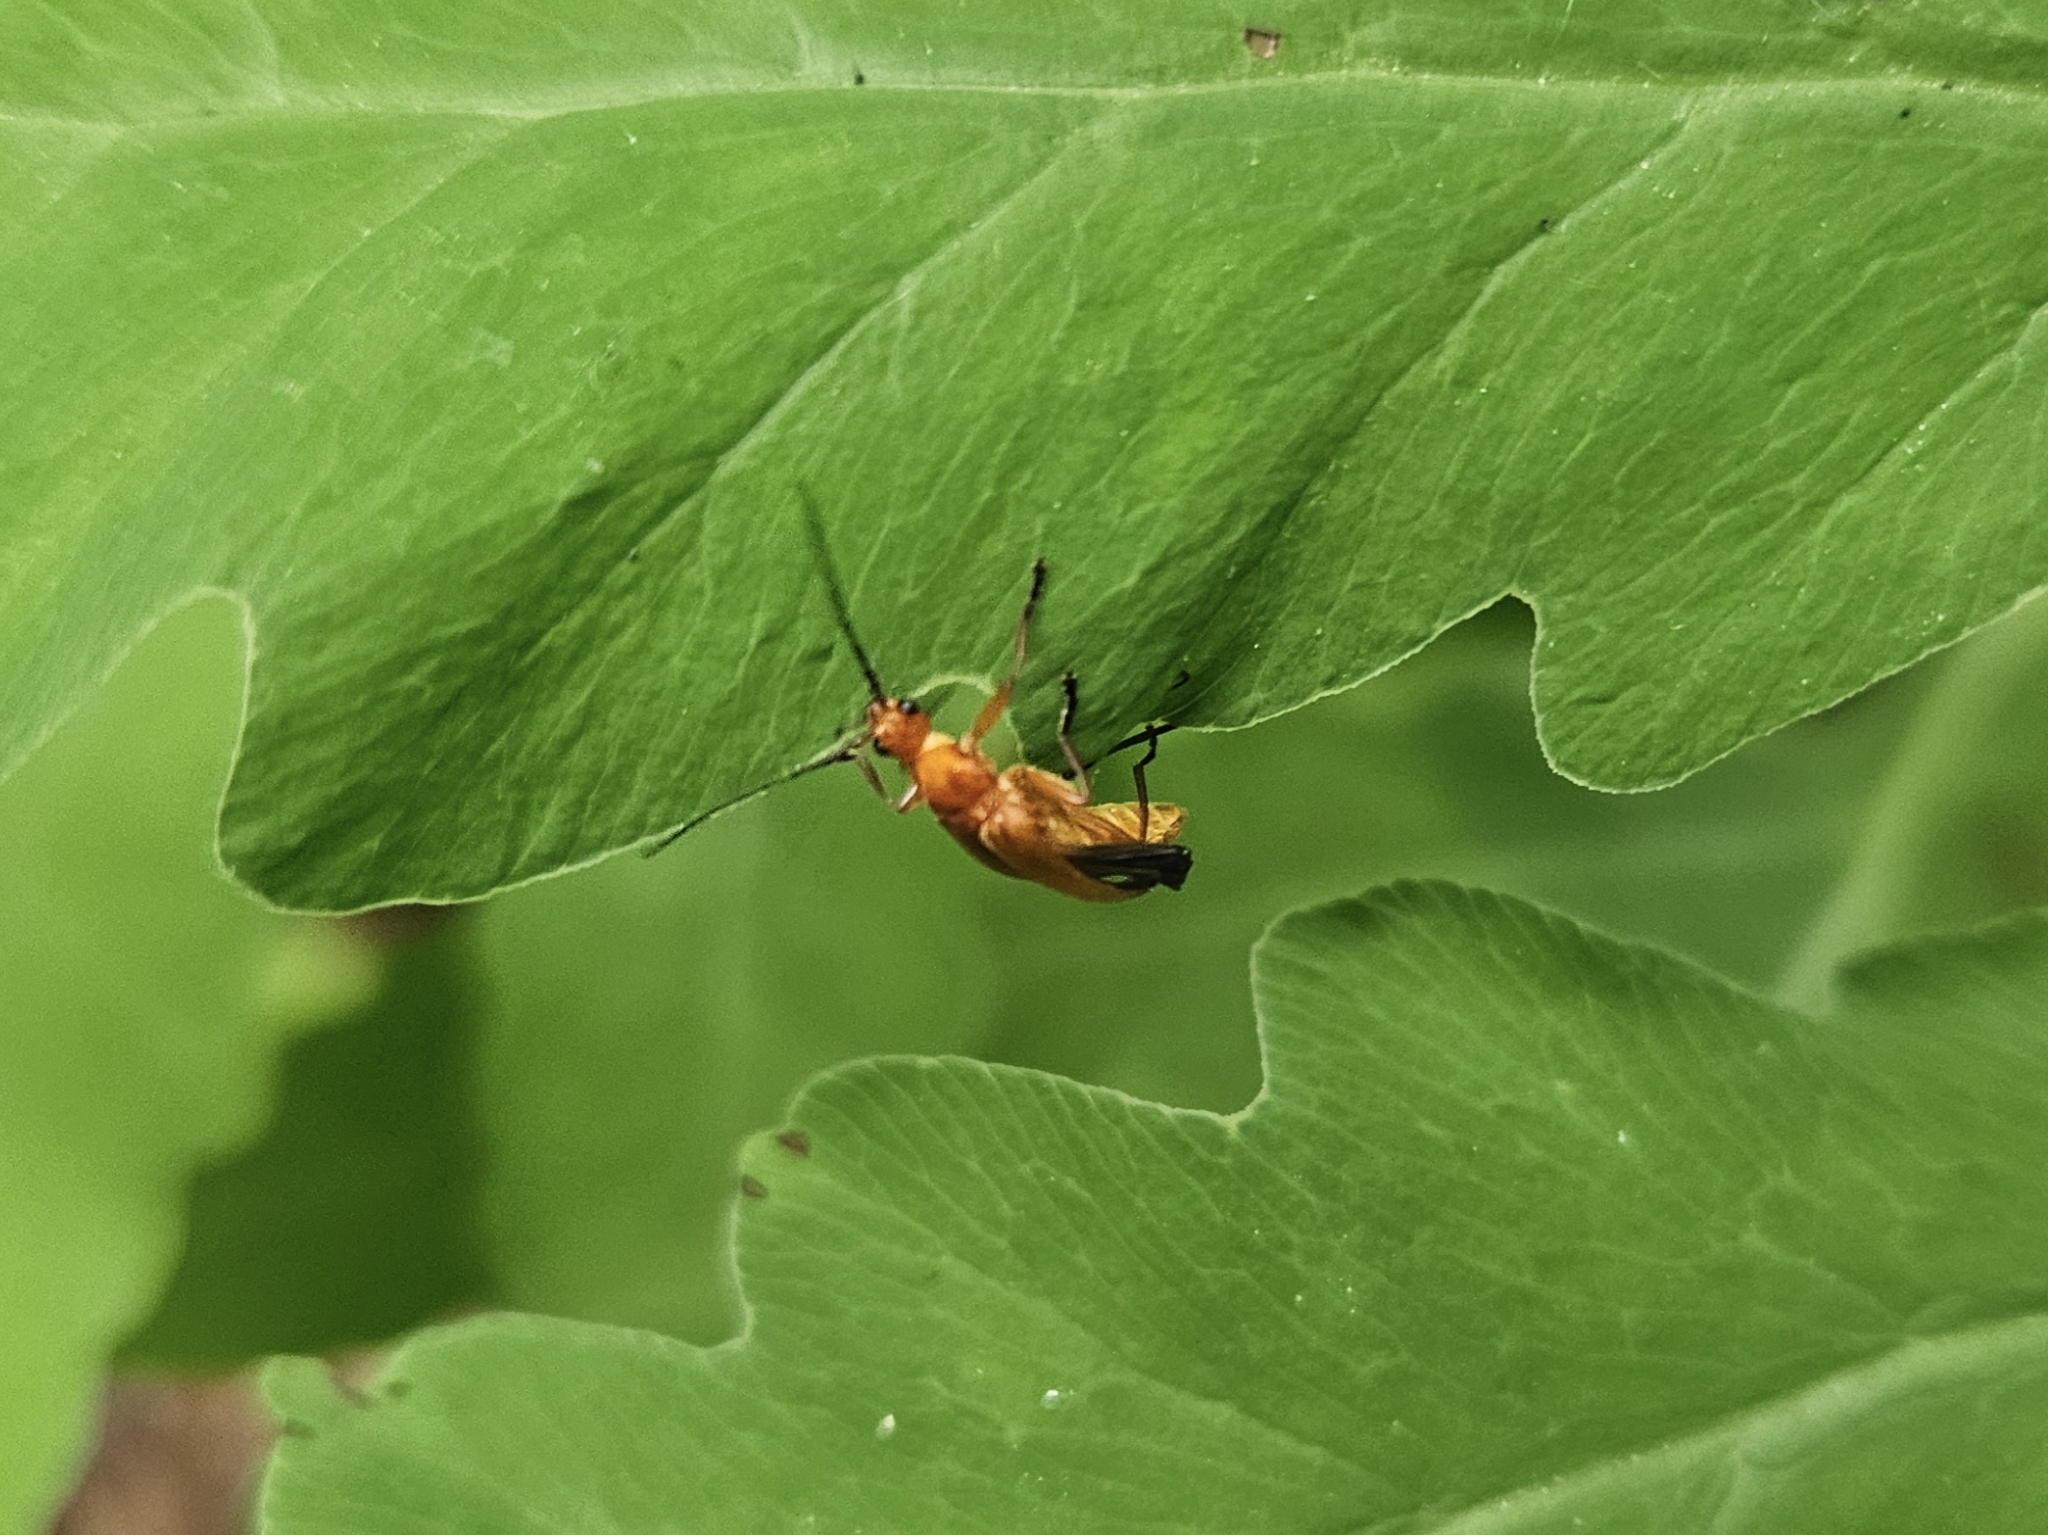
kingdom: Animalia
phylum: Arthropoda
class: Insecta
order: Coleoptera
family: Cantharidae
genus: Rhagonycha
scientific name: Rhagonycha fulva
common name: Common red soldier beetle
